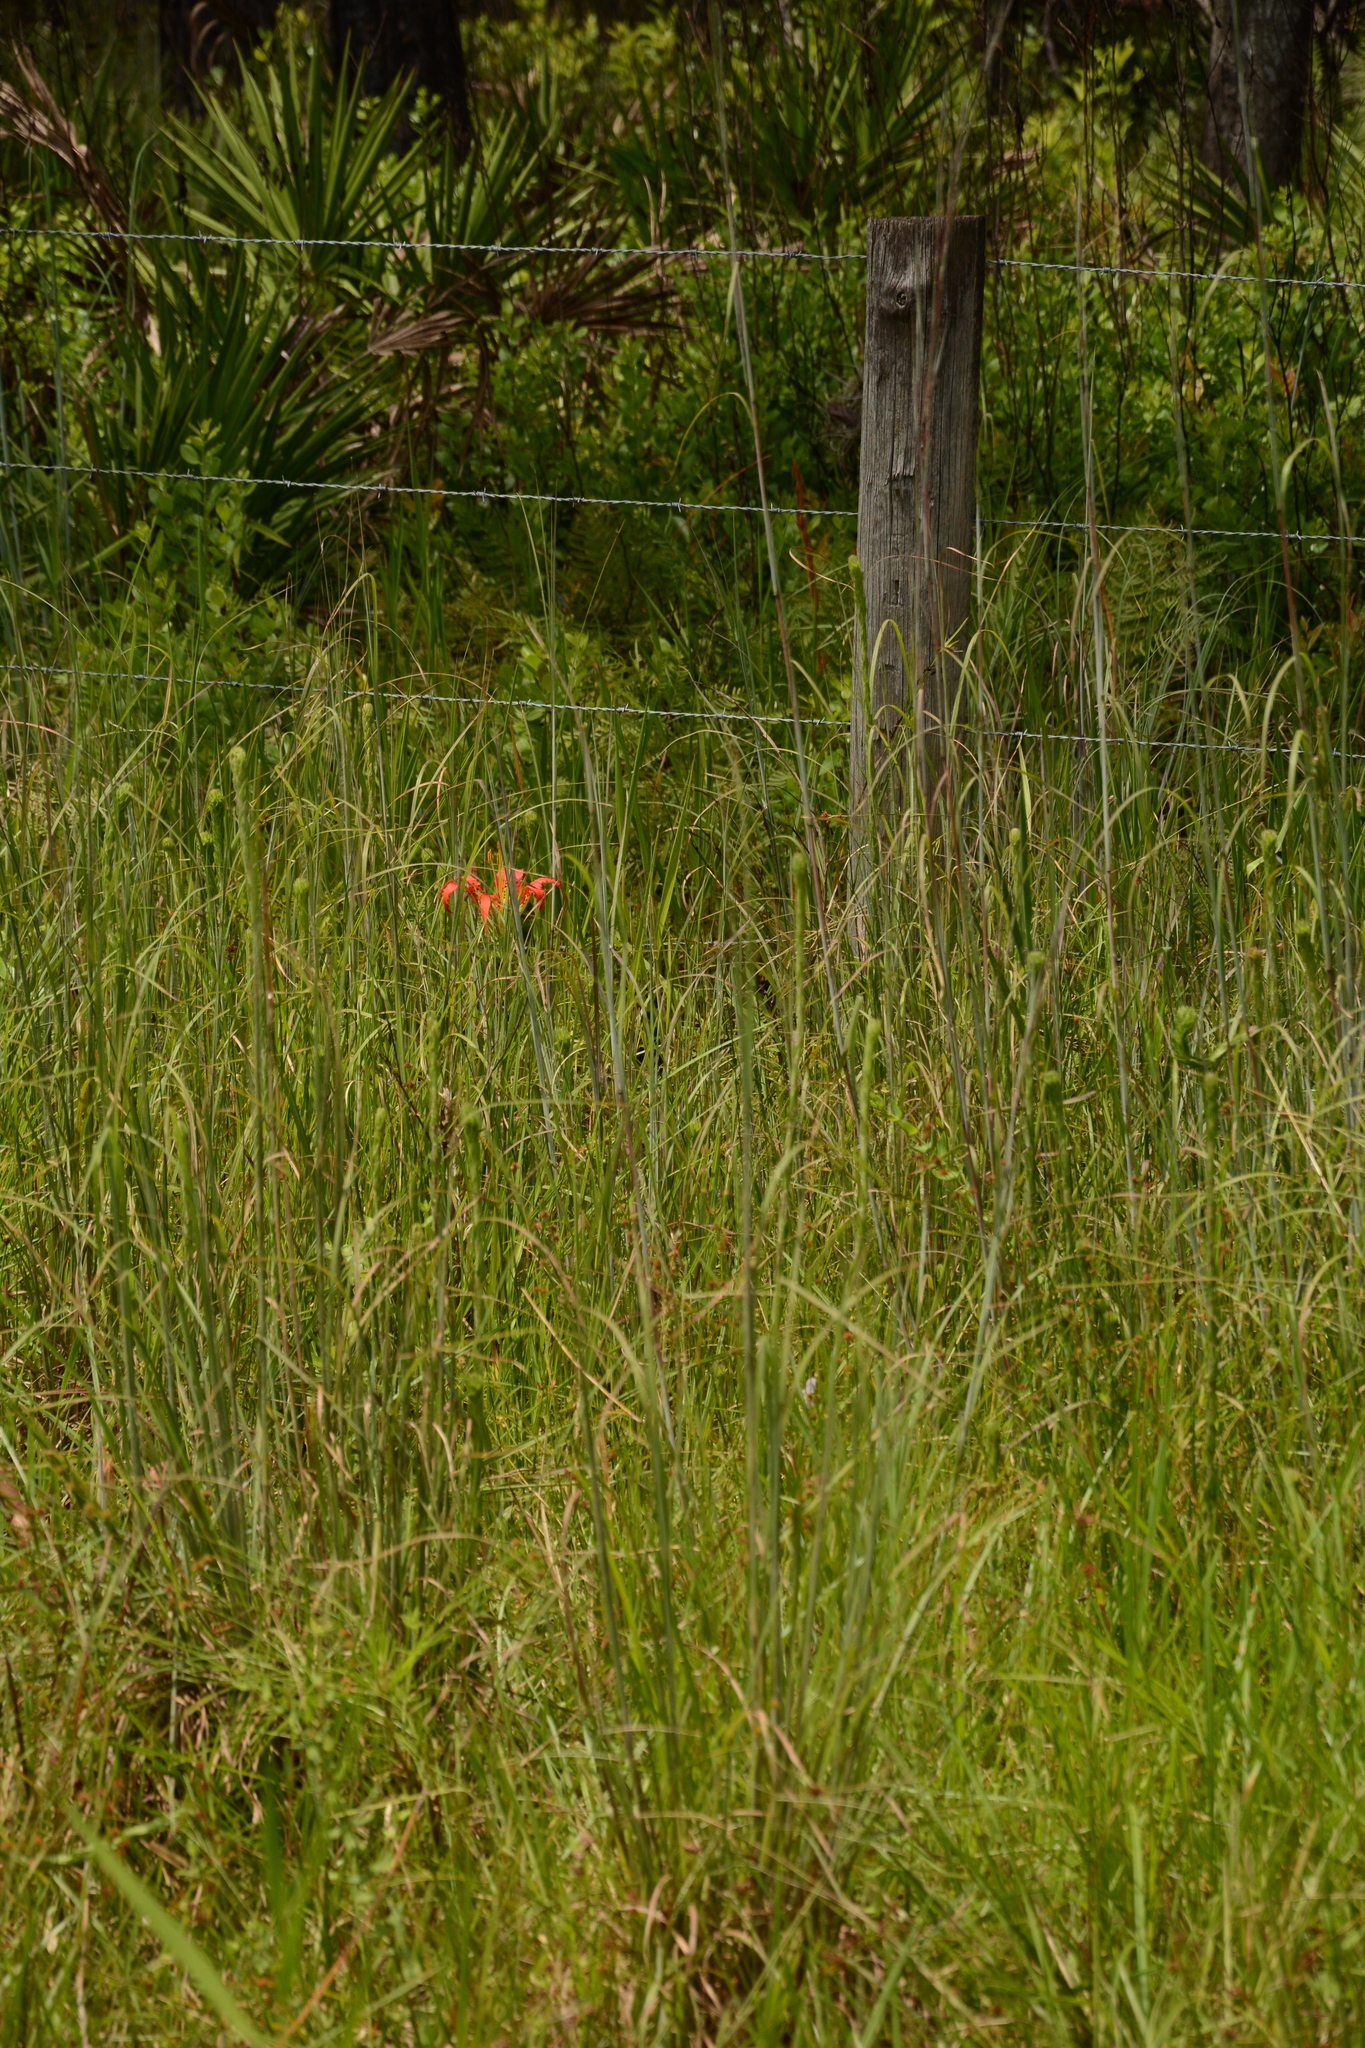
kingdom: Plantae
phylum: Tracheophyta
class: Liliopsida
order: Liliales
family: Liliaceae
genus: Lilium
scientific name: Lilium catesbaei
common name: Catesby's lily
